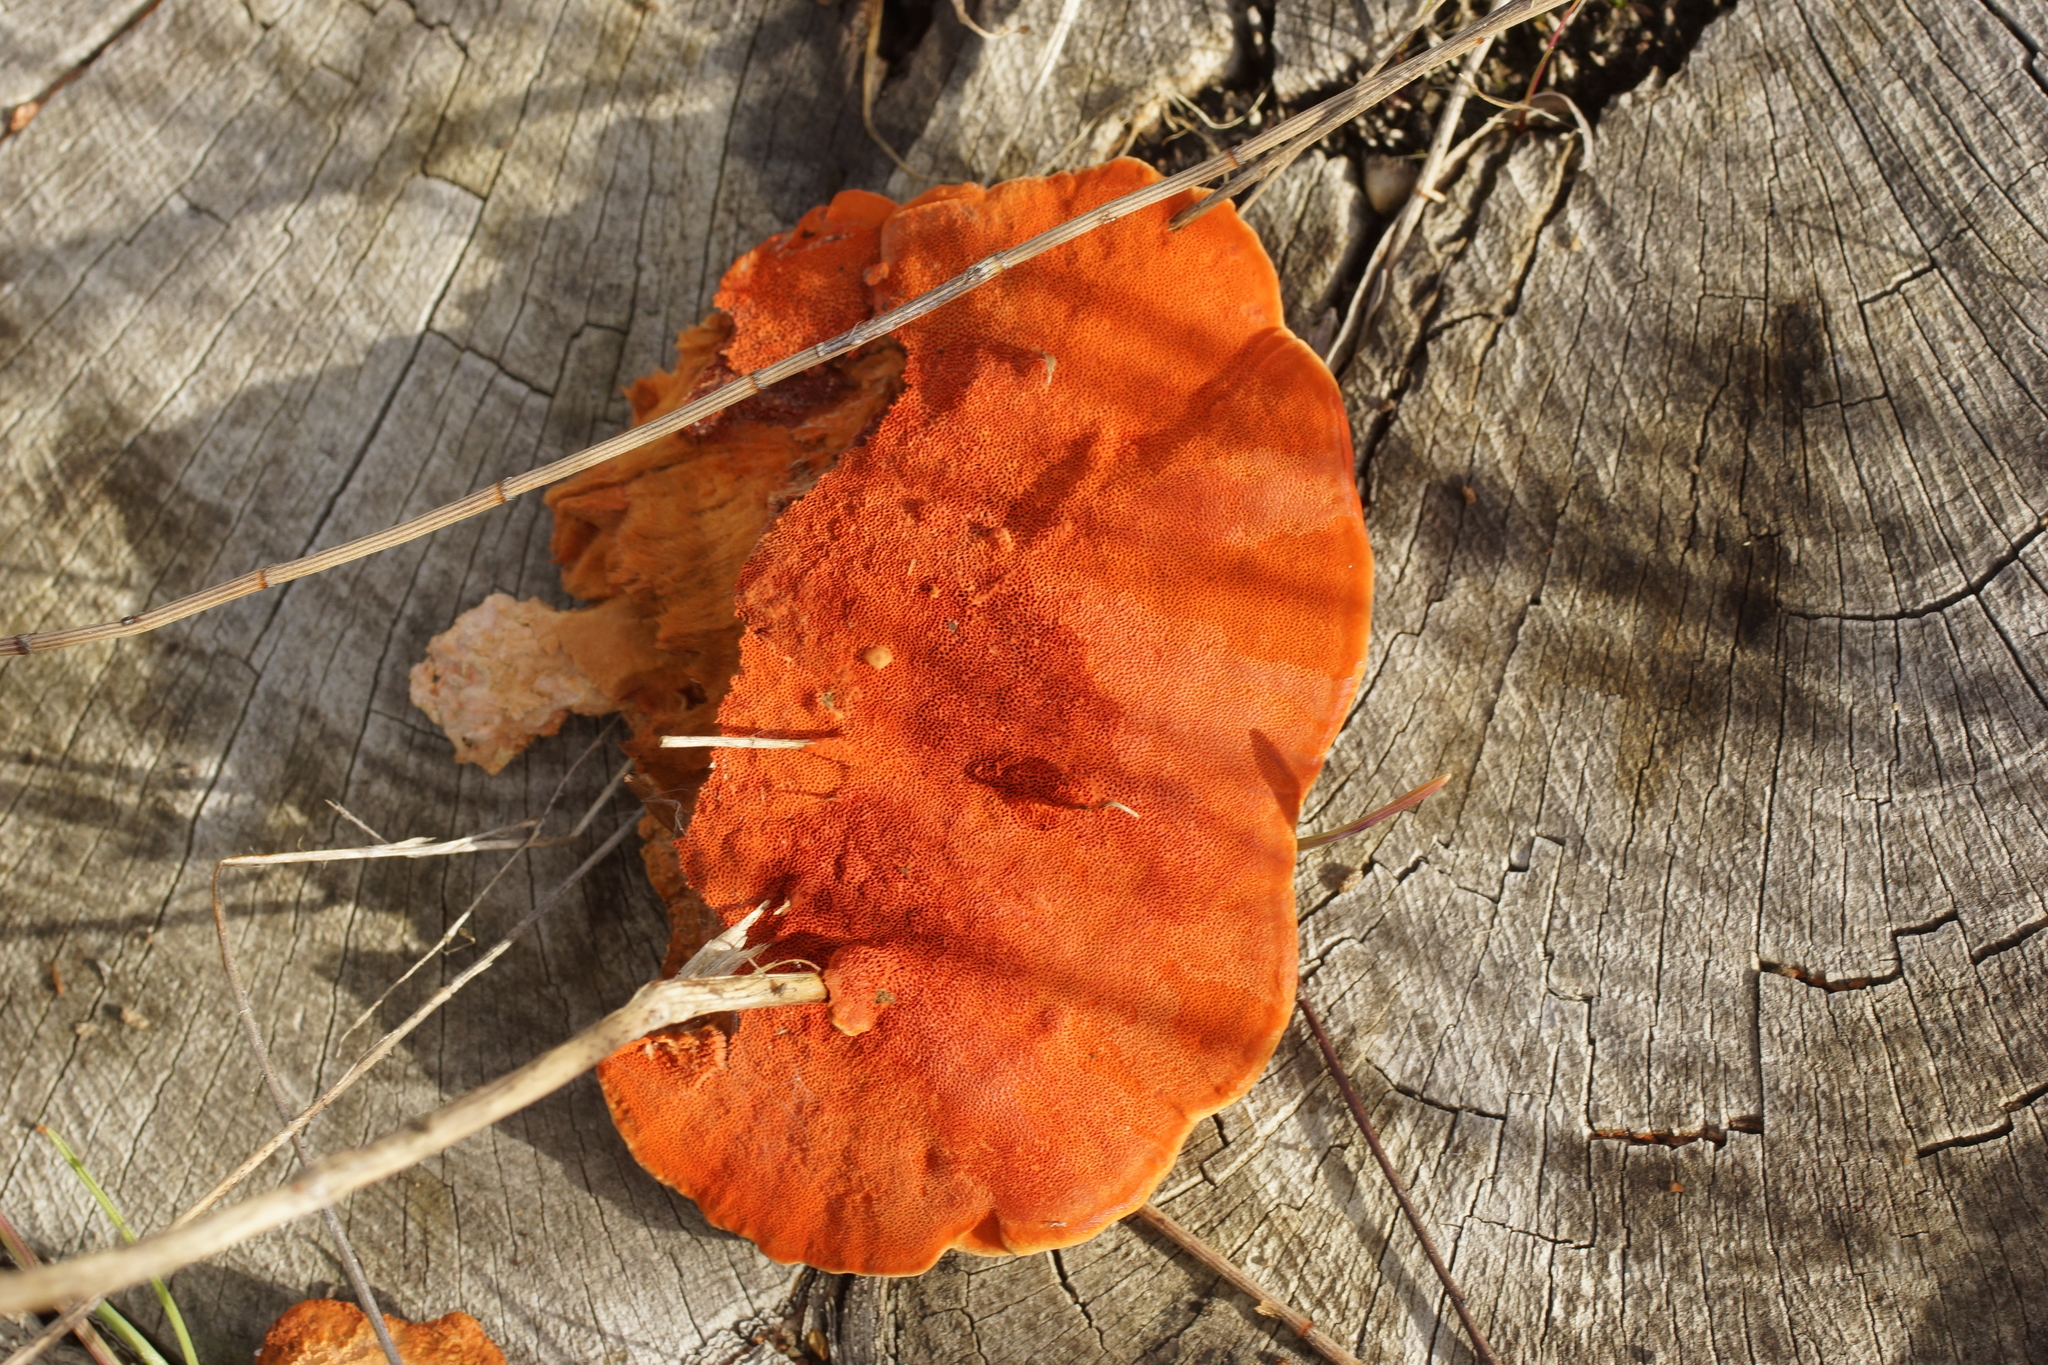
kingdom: Fungi
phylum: Basidiomycota
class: Agaricomycetes
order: Polyporales
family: Polyporaceae
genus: Trametes
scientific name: Trametes coccinea
